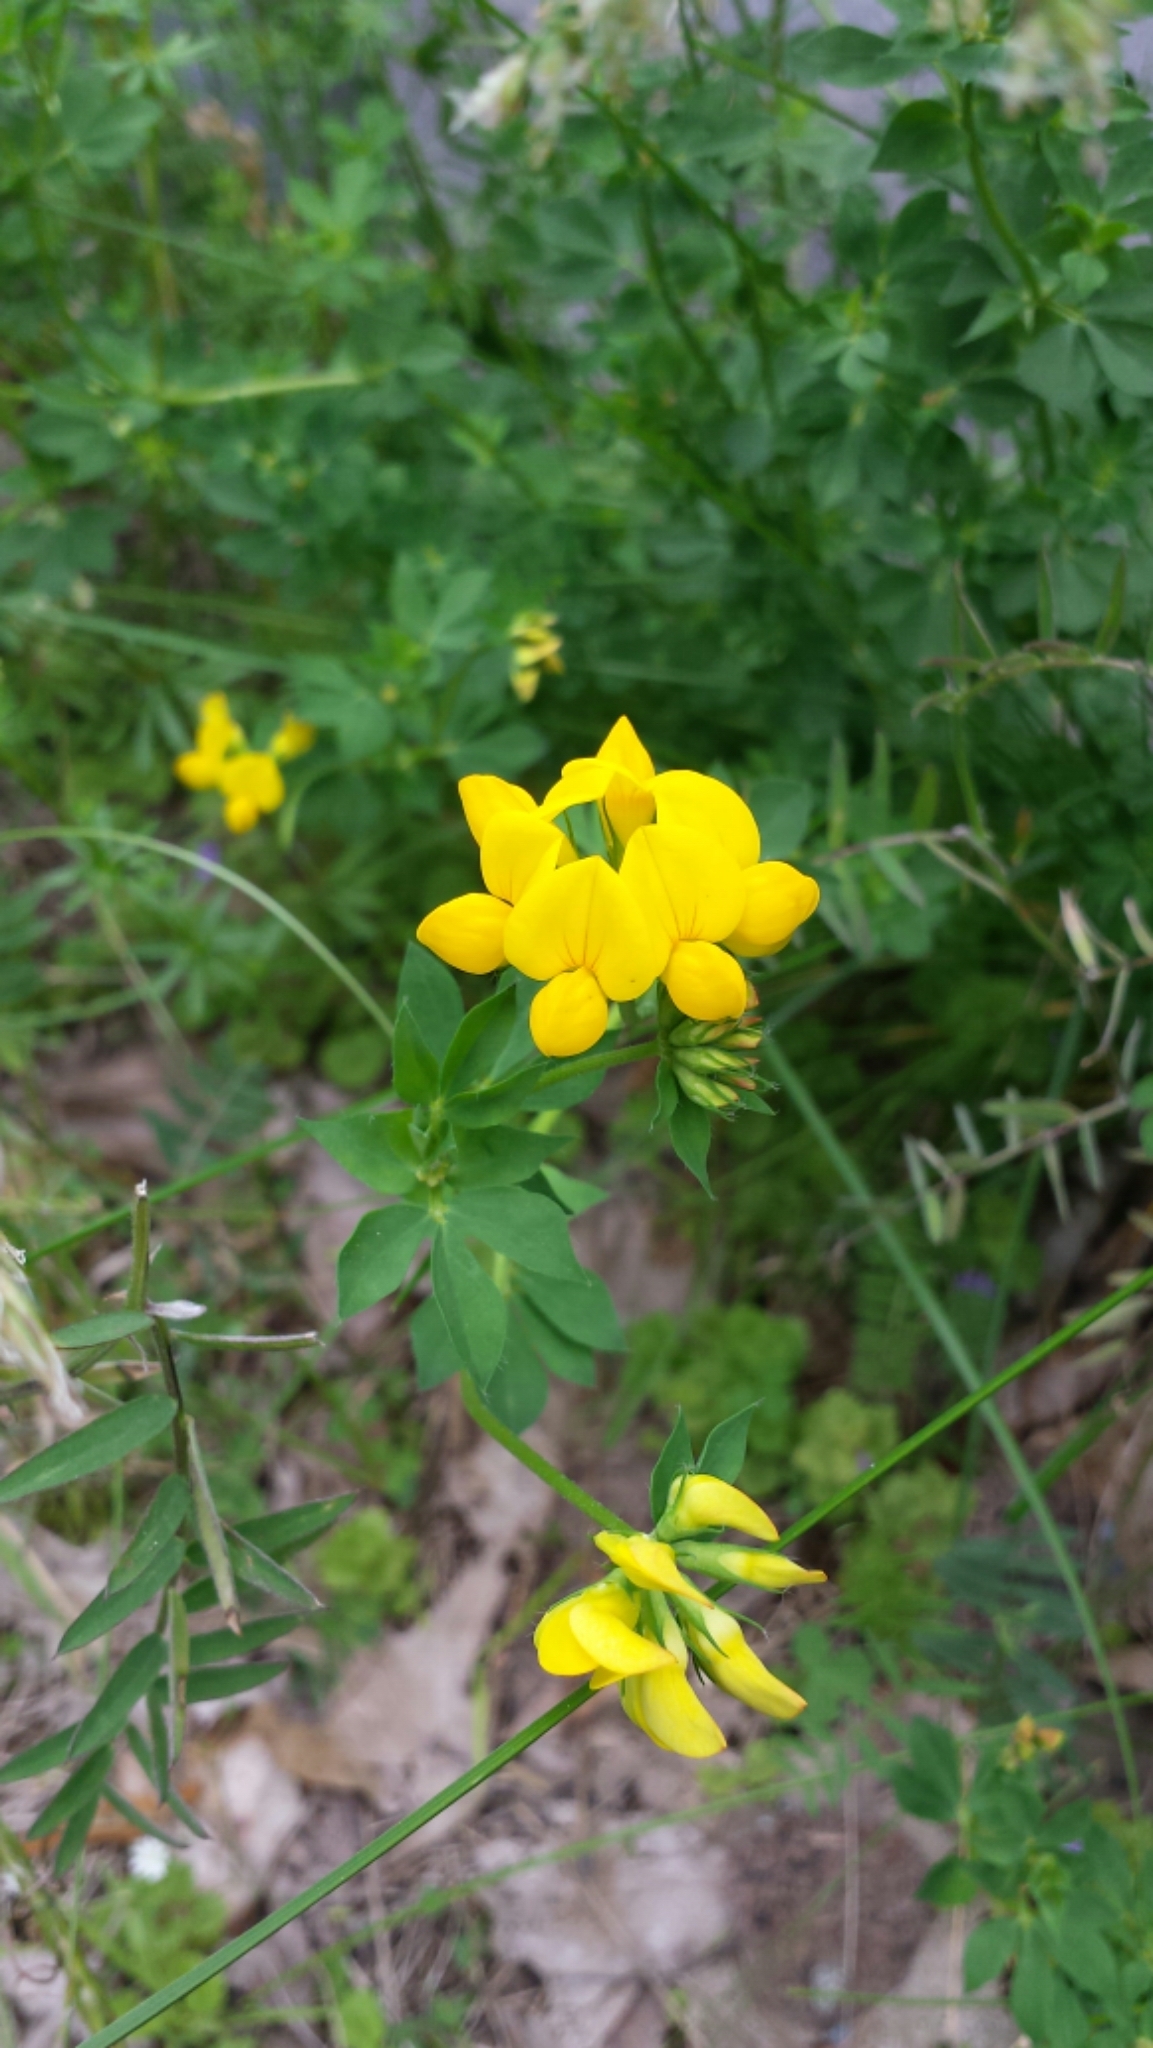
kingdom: Plantae
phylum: Tracheophyta
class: Magnoliopsida
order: Fabales
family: Fabaceae
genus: Lotus
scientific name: Lotus corniculatus
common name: Common bird's-foot-trefoil
